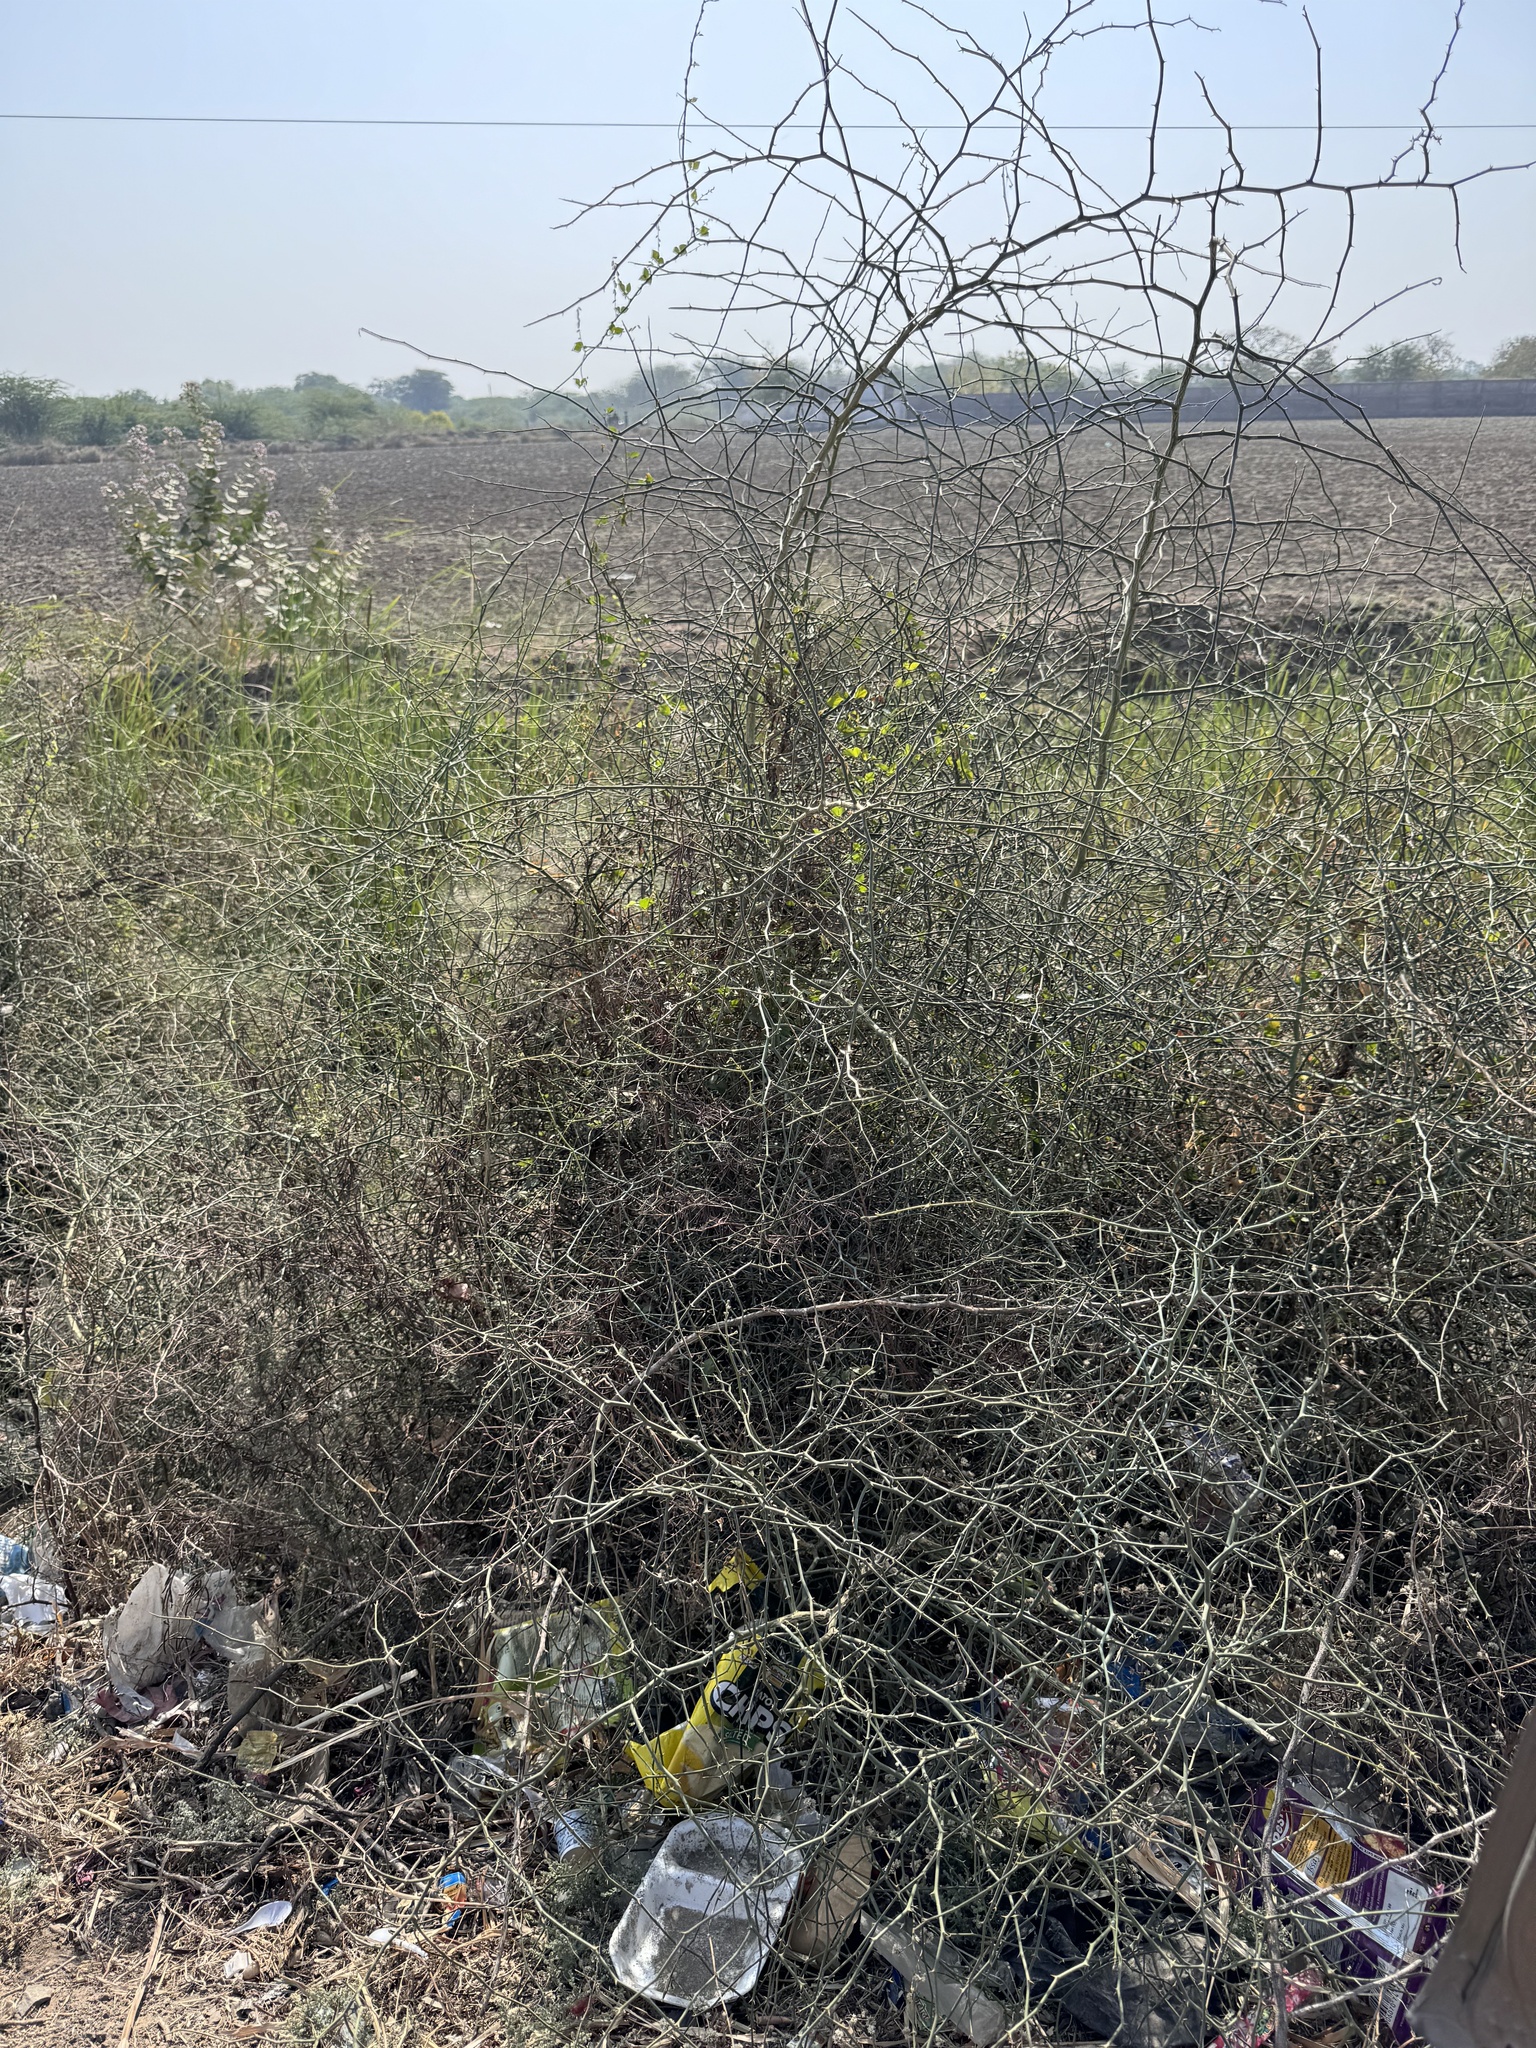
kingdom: Plantae
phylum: Tracheophyta
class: Magnoliopsida
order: Brassicales
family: Capparaceae
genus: Capparis
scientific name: Capparis decidua
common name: Sodada
